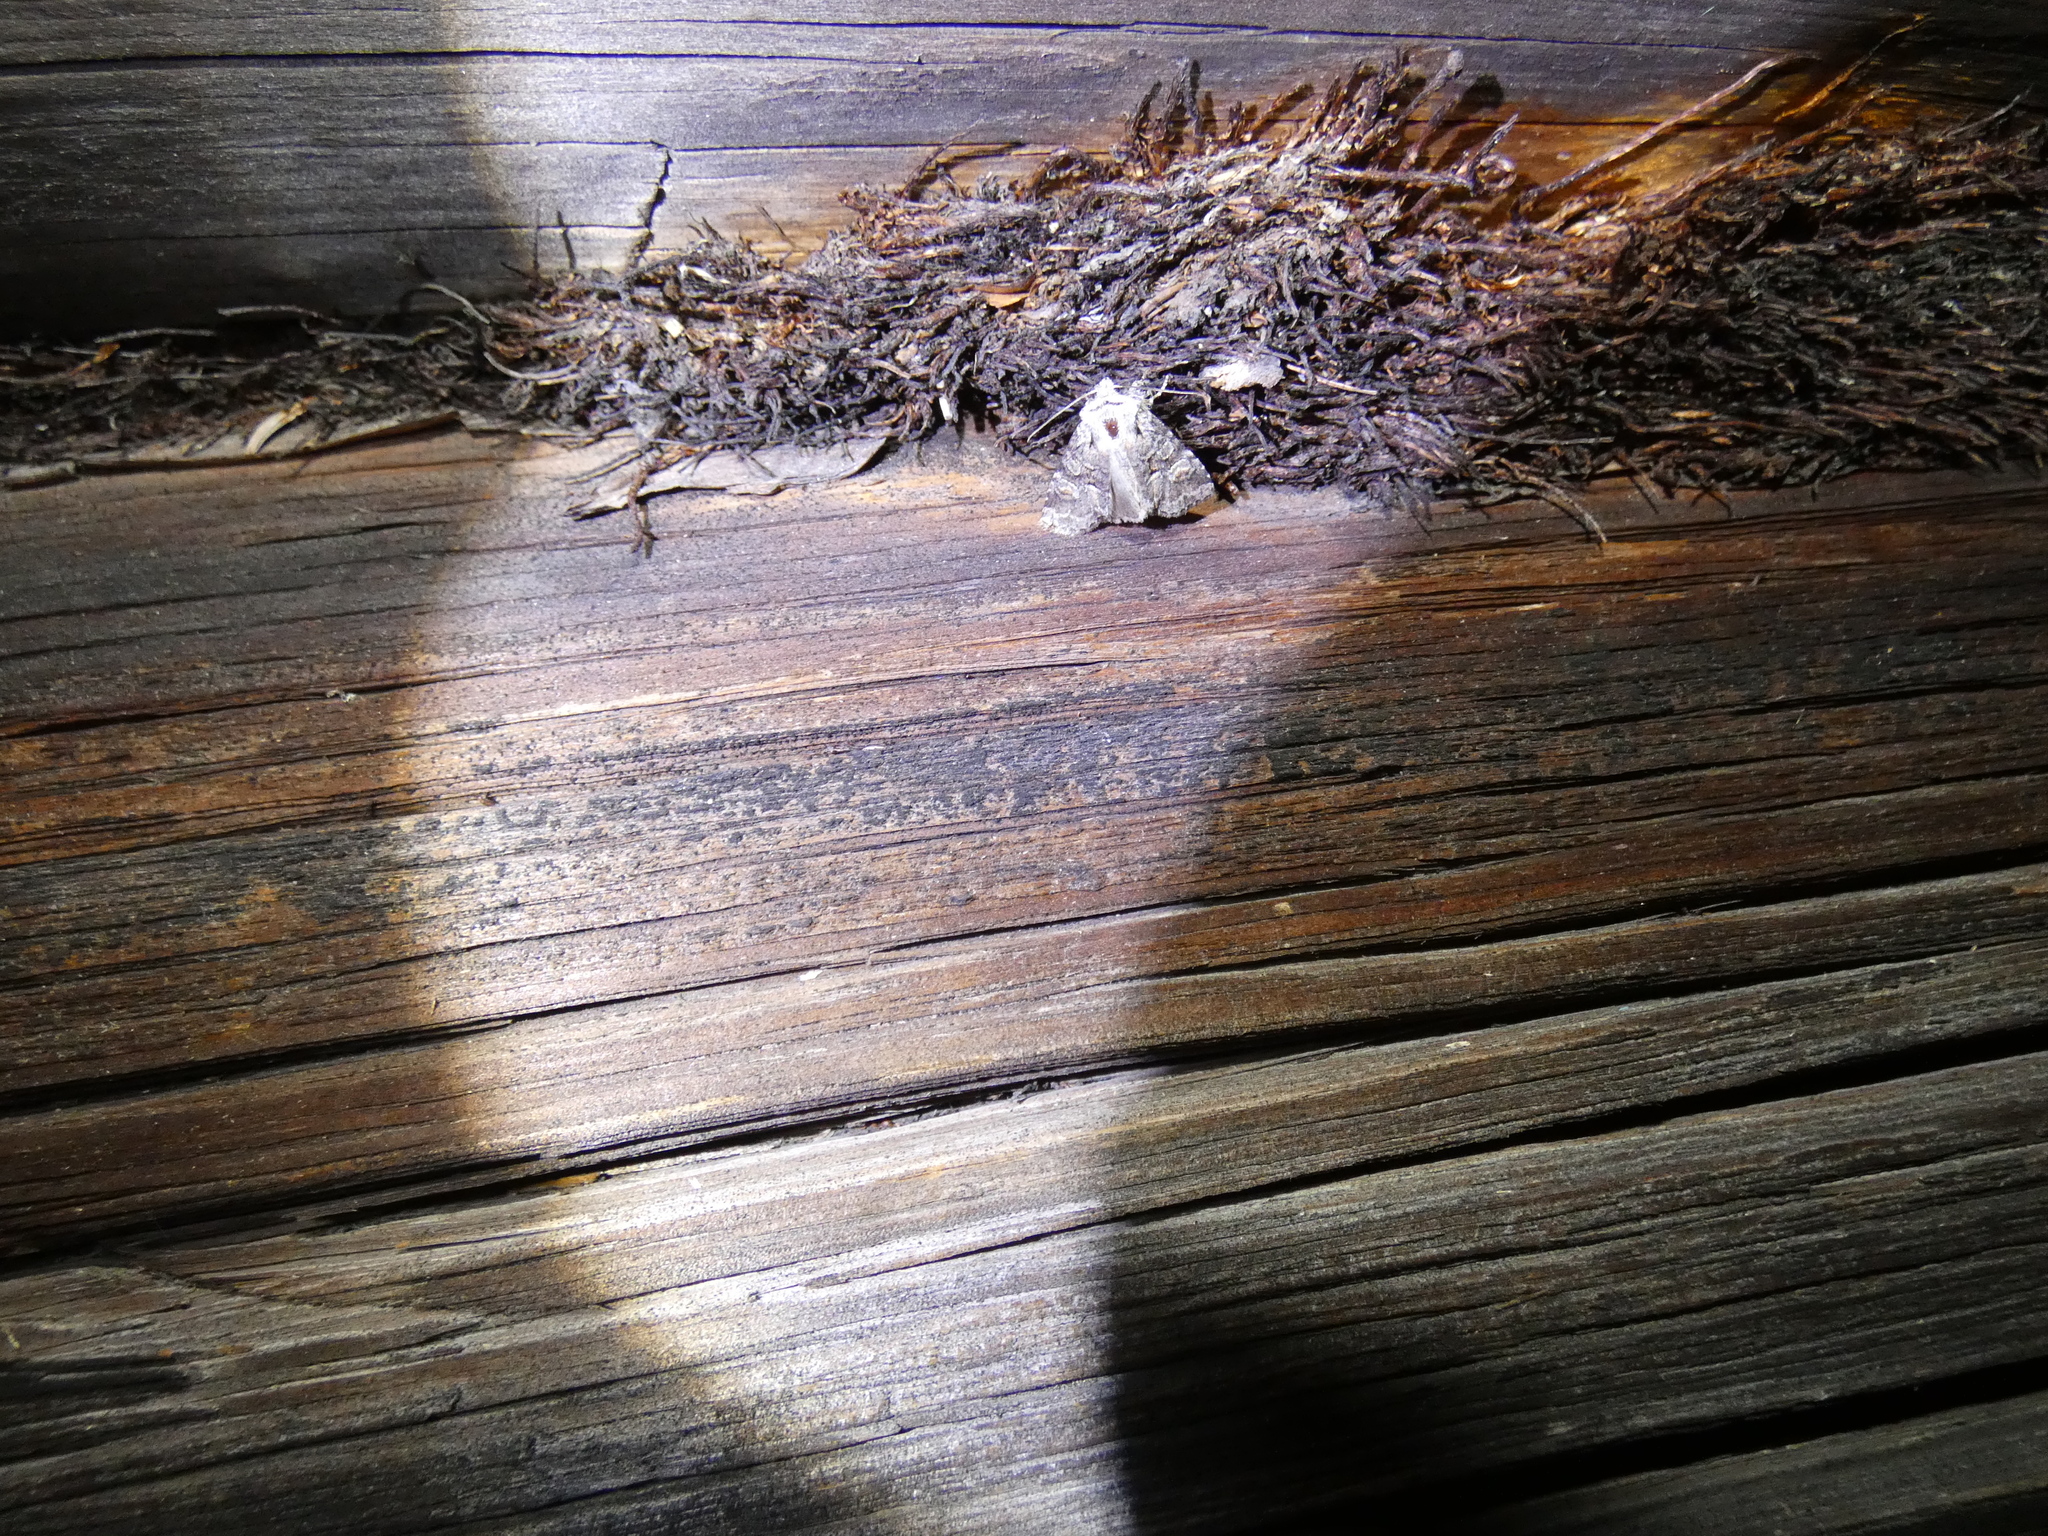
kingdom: Animalia
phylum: Arthropoda
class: Insecta
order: Lepidoptera
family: Noctuidae
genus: Brachylomia
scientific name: Brachylomia viminalis
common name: Minor shoulder-knot
